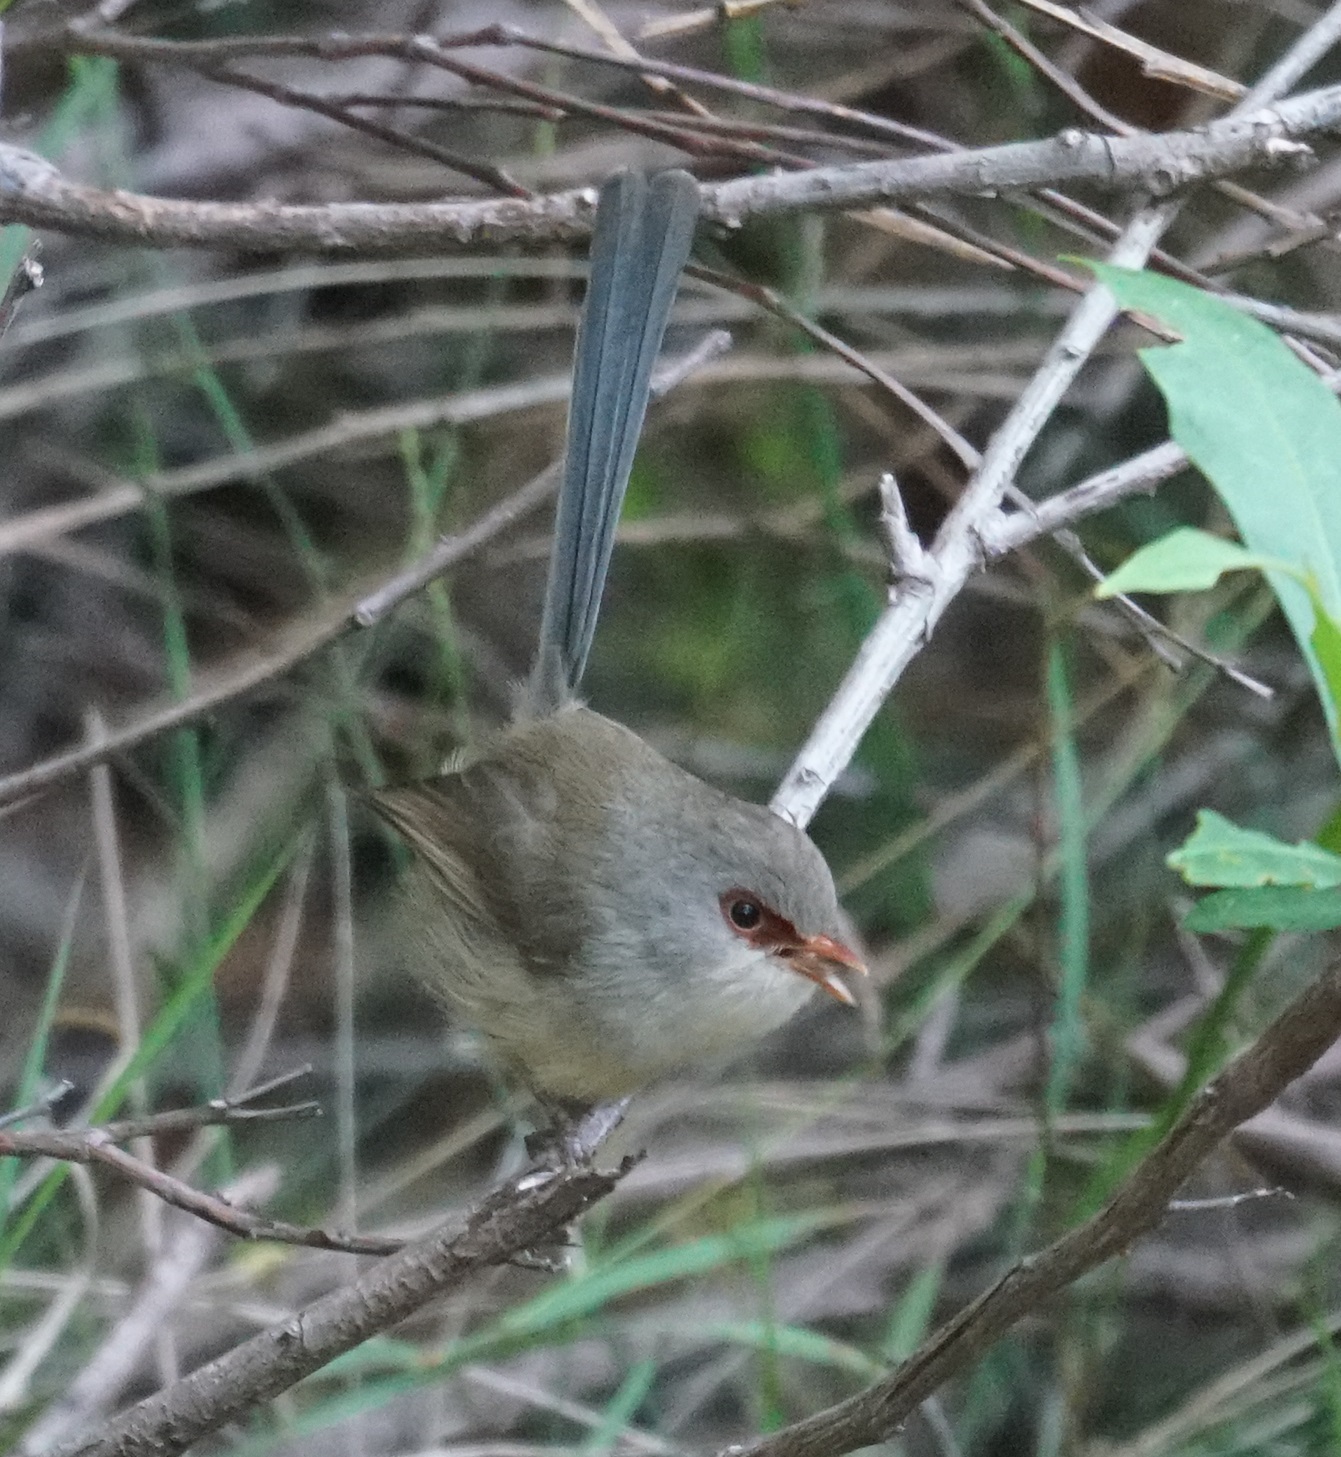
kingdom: Animalia
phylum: Chordata
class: Aves
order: Passeriformes
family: Maluridae
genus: Malurus
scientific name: Malurus lamberti
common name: Variegated fairywren
